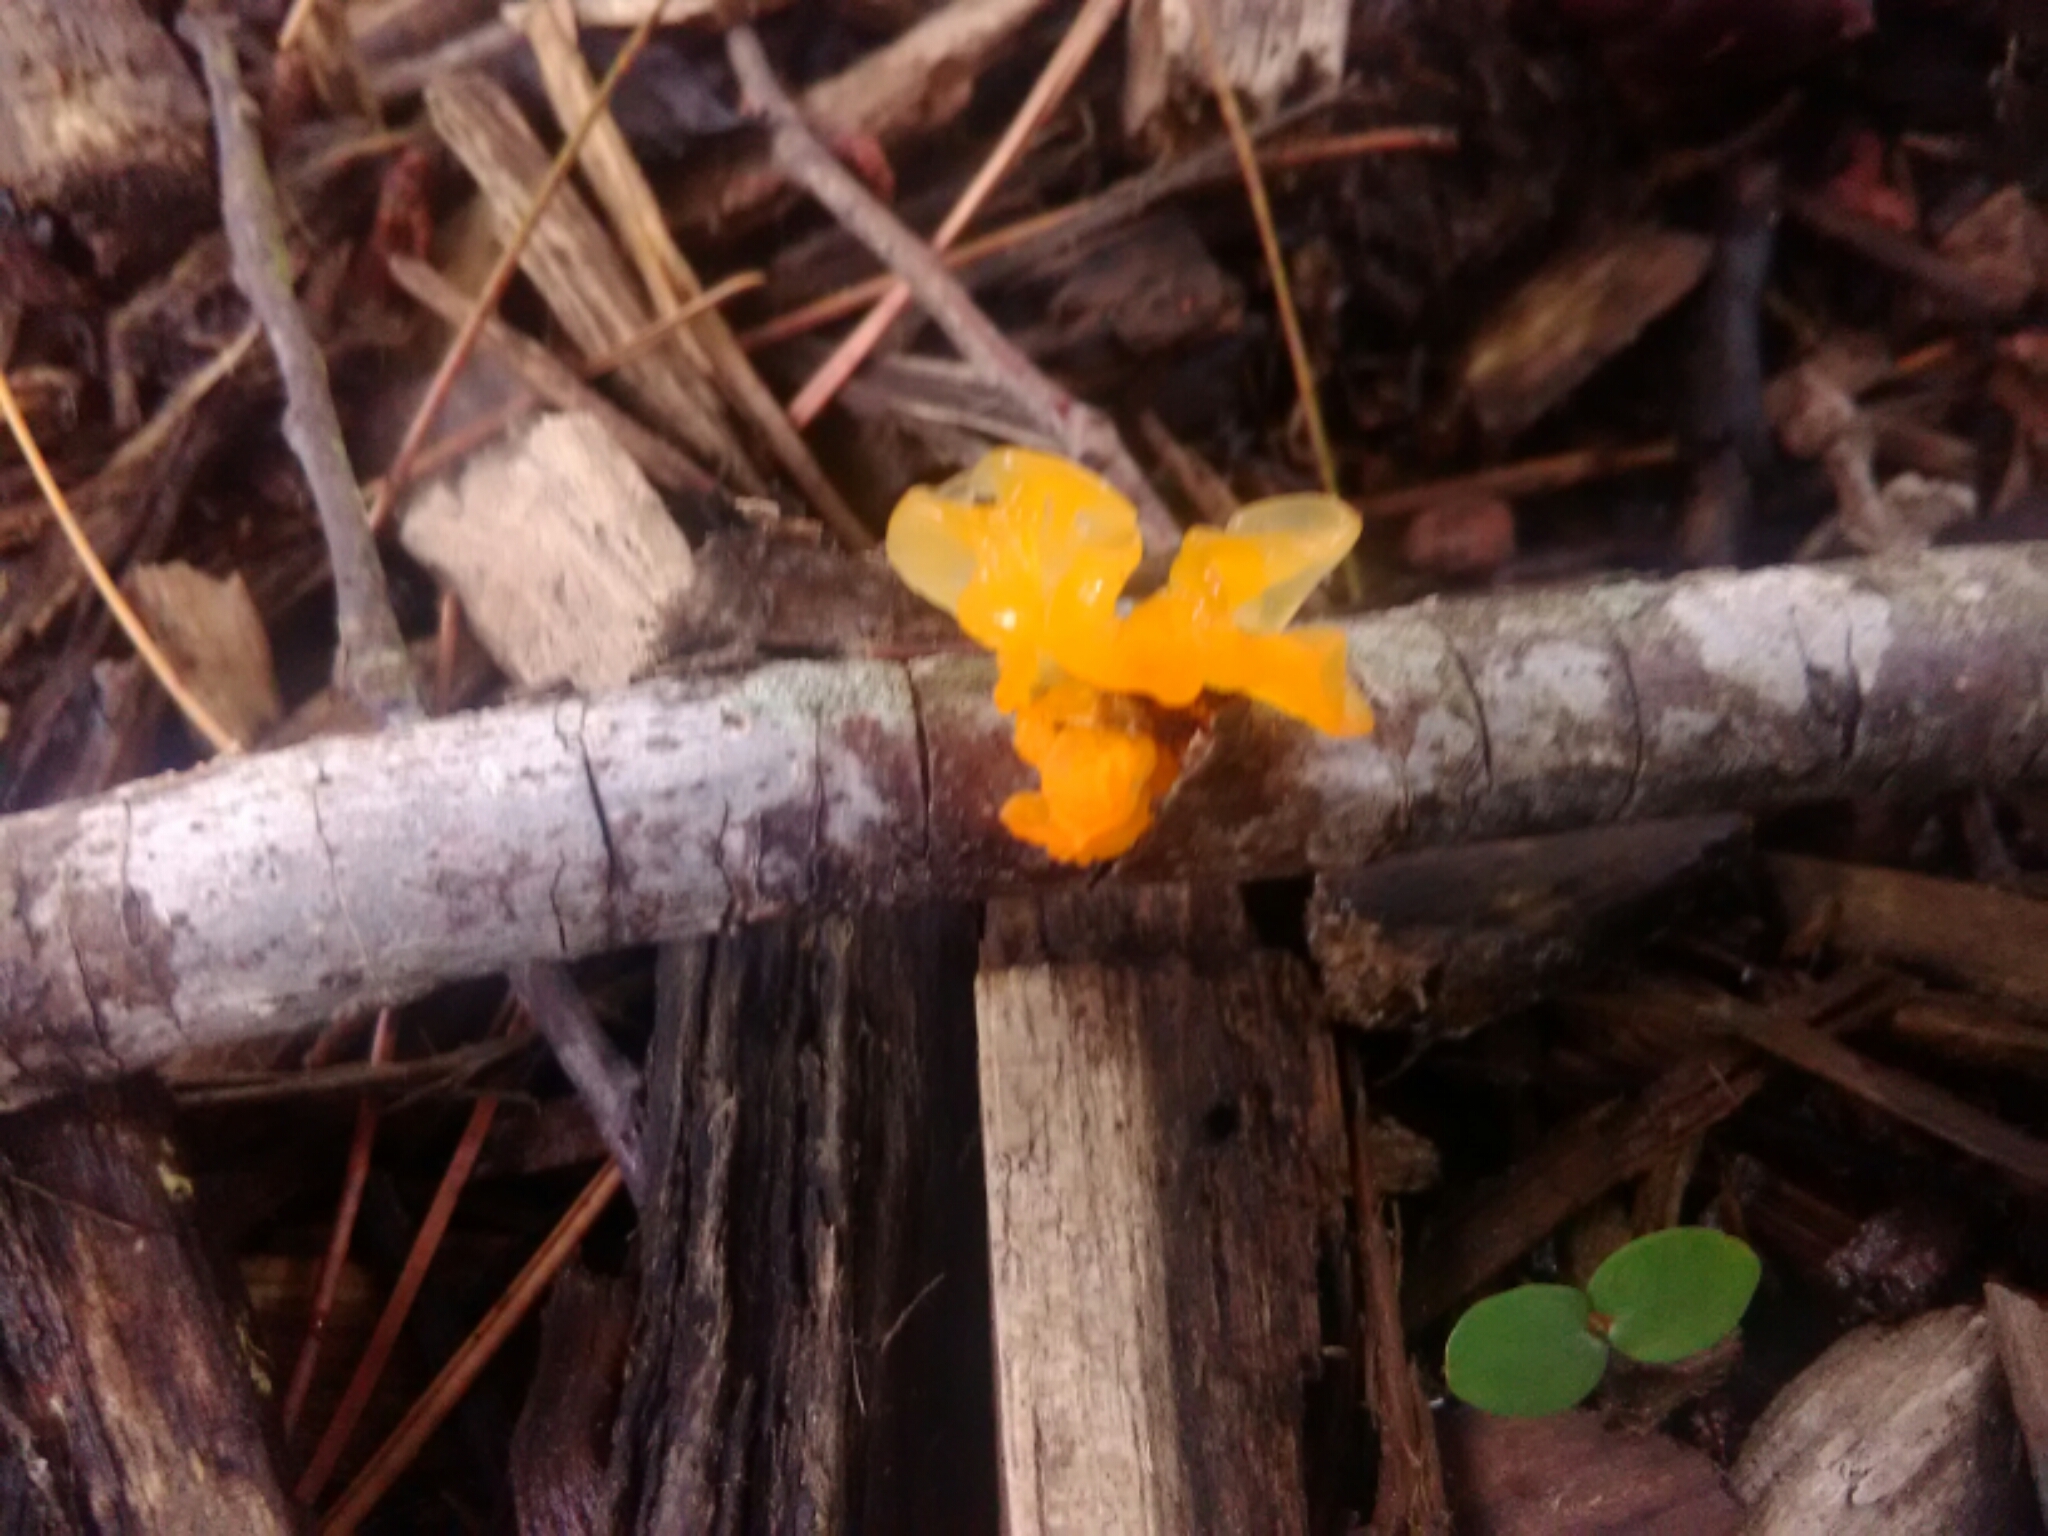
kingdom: Fungi
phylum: Basidiomycota
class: Tremellomycetes
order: Tremellales
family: Tremellaceae
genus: Tremella
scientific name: Tremella mesenterica
